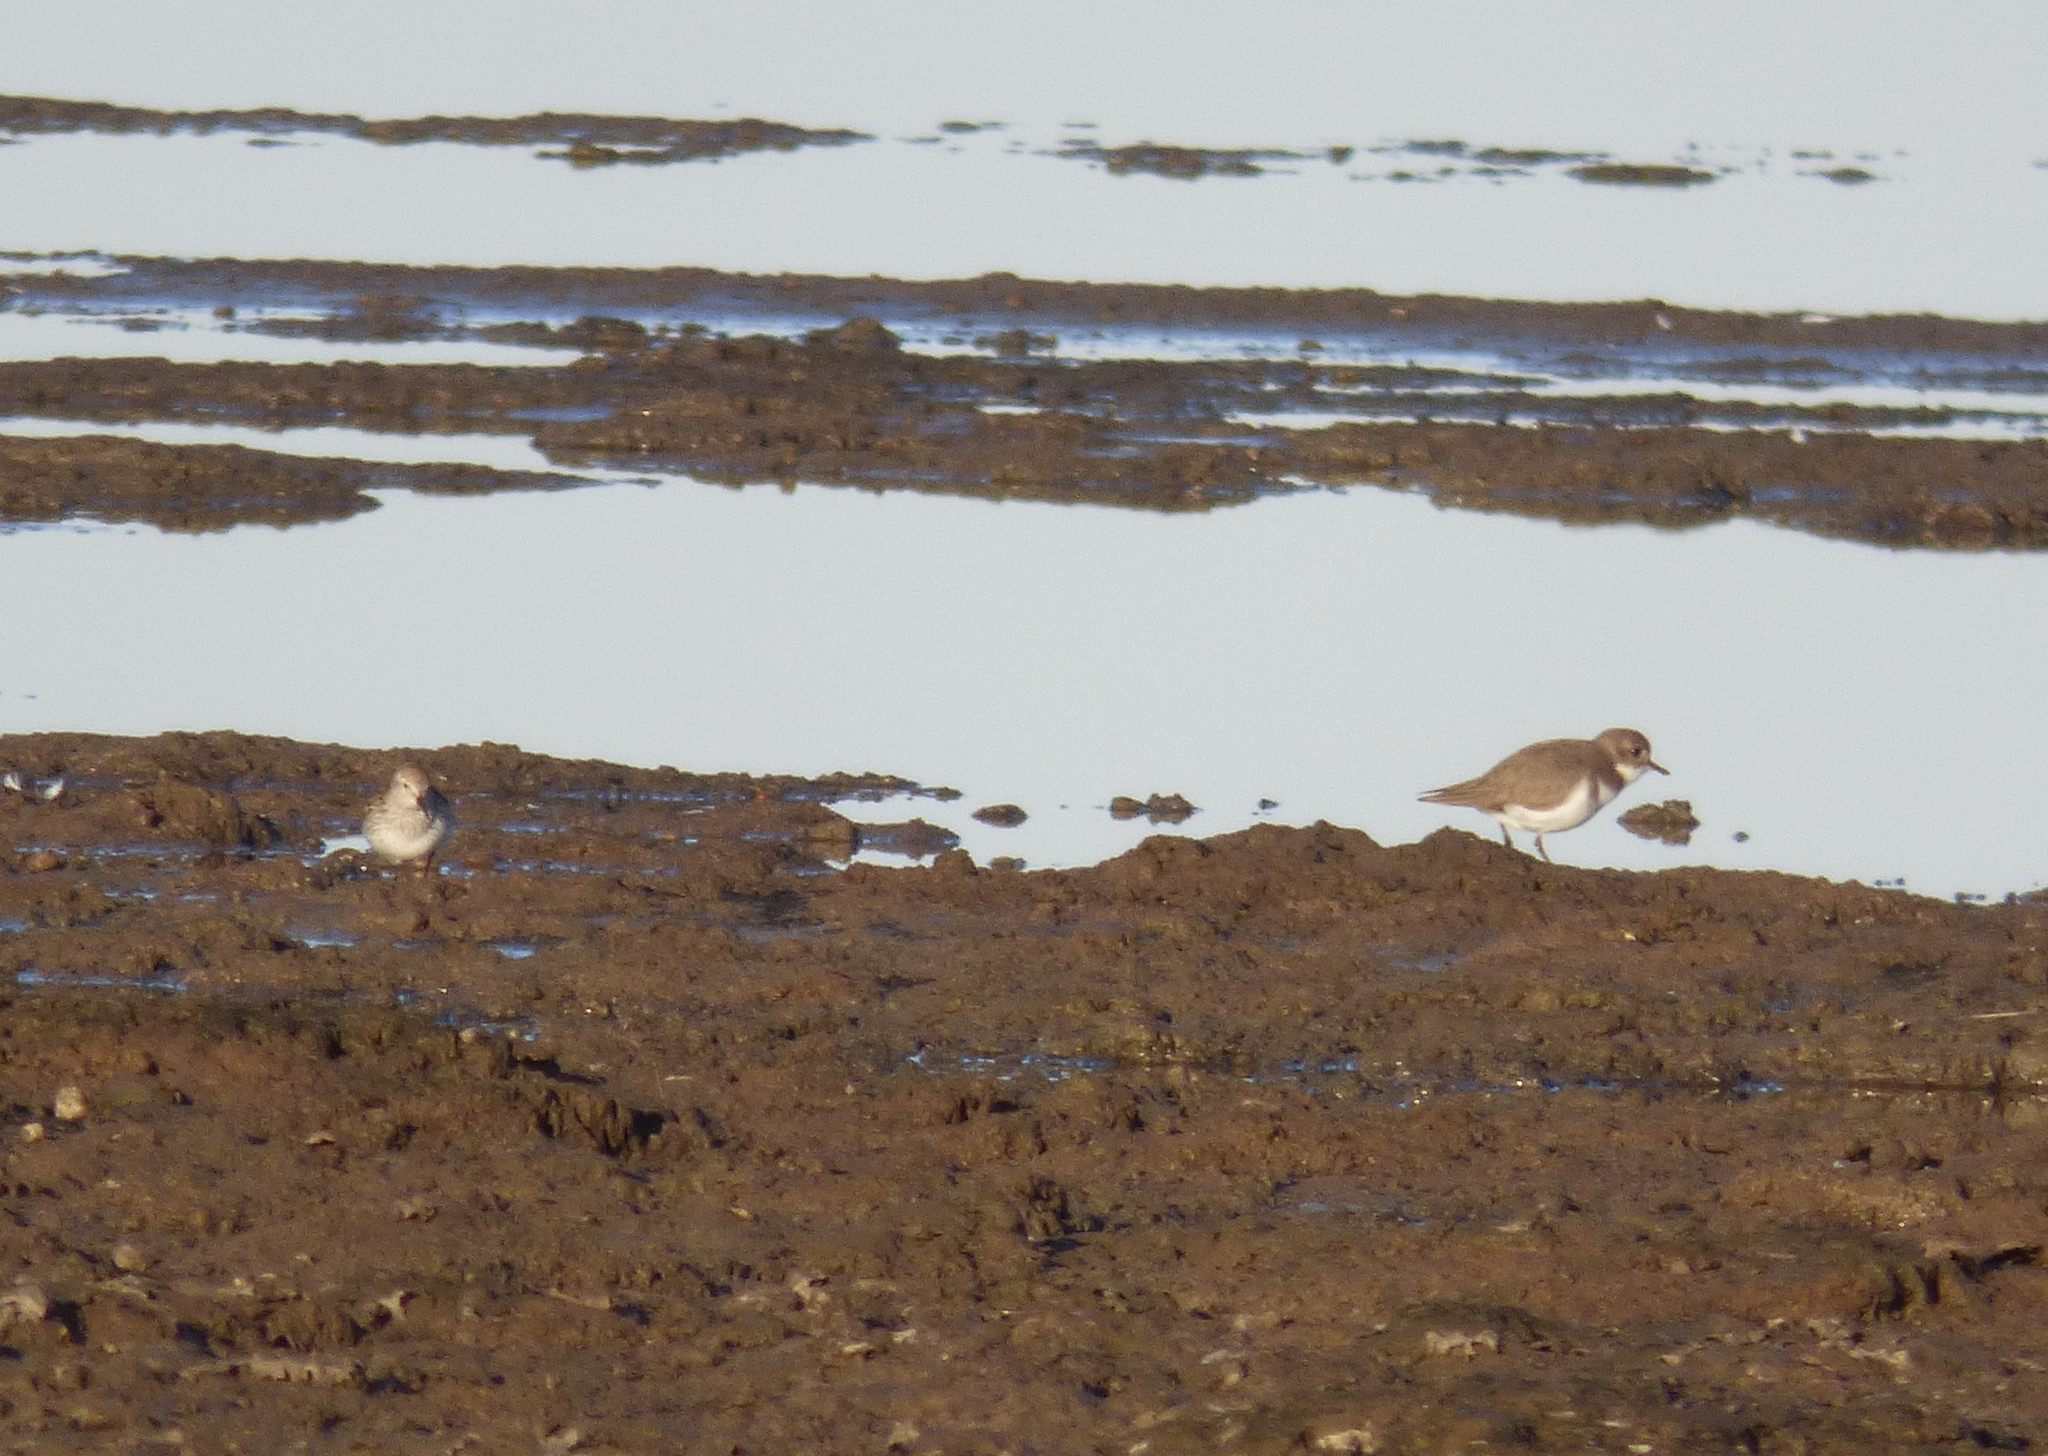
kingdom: Animalia
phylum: Chordata
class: Aves
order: Charadriiformes
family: Charadriidae
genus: Anarhynchus
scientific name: Anarhynchus
